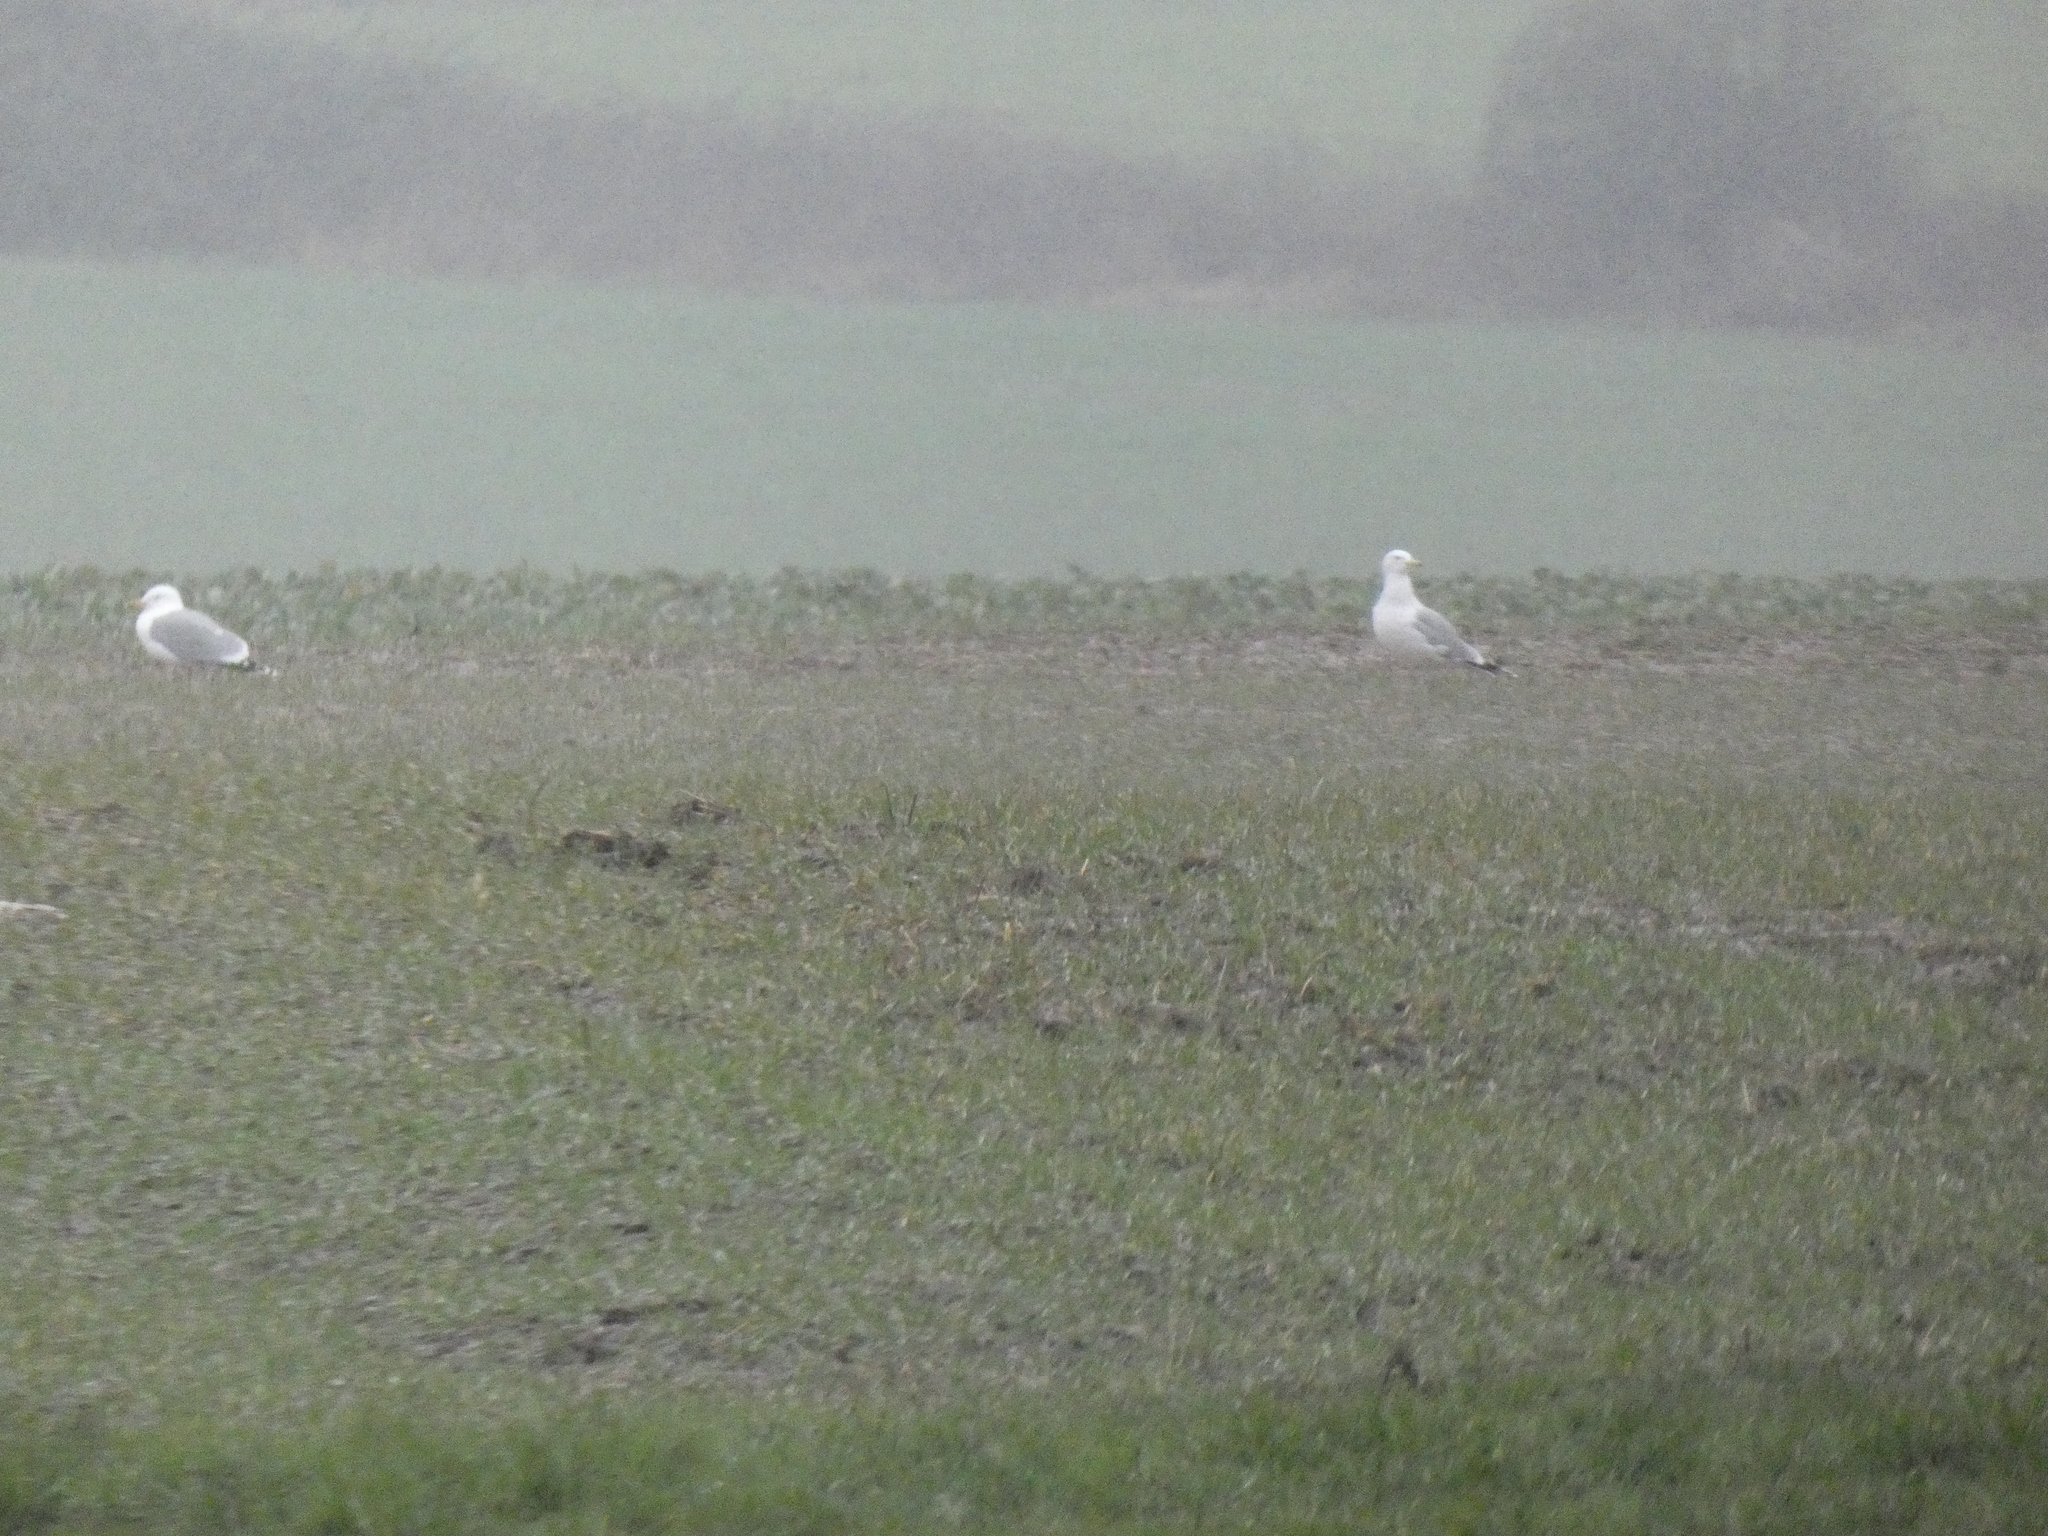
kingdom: Animalia
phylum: Chordata
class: Aves
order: Charadriiformes
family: Laridae
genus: Larus
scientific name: Larus cachinnans
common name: Caspian gull
